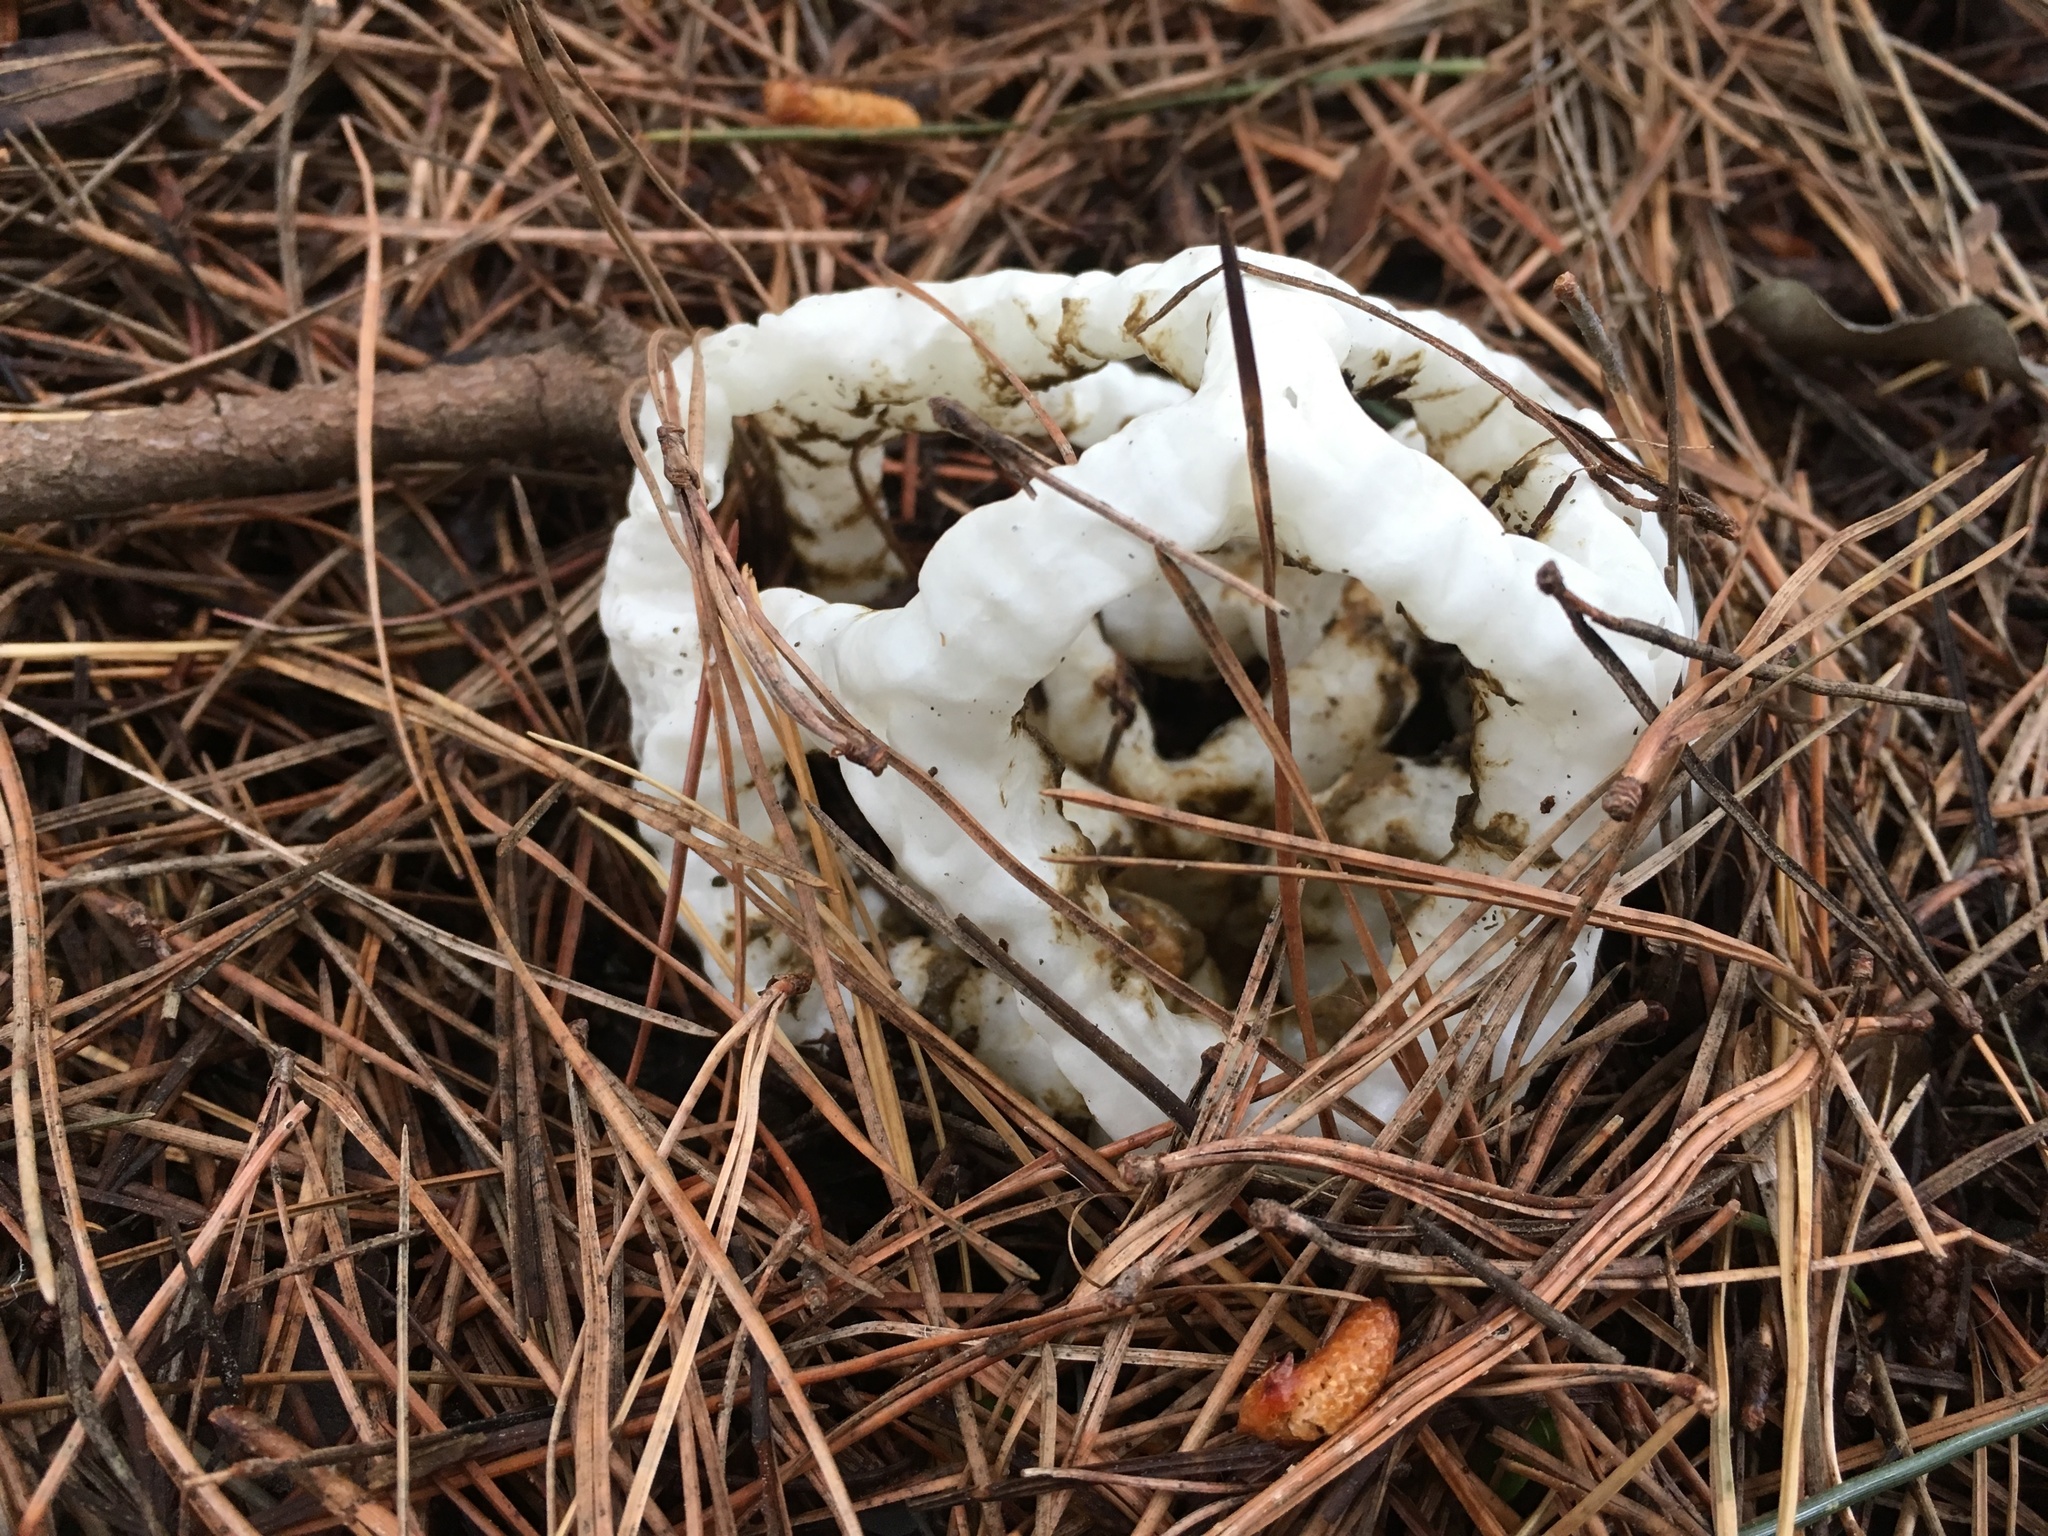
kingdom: Fungi
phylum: Basidiomycota
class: Agaricomycetes
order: Phallales
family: Phallaceae
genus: Ileodictyon
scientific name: Ileodictyon cibarium
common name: Basket fungus
